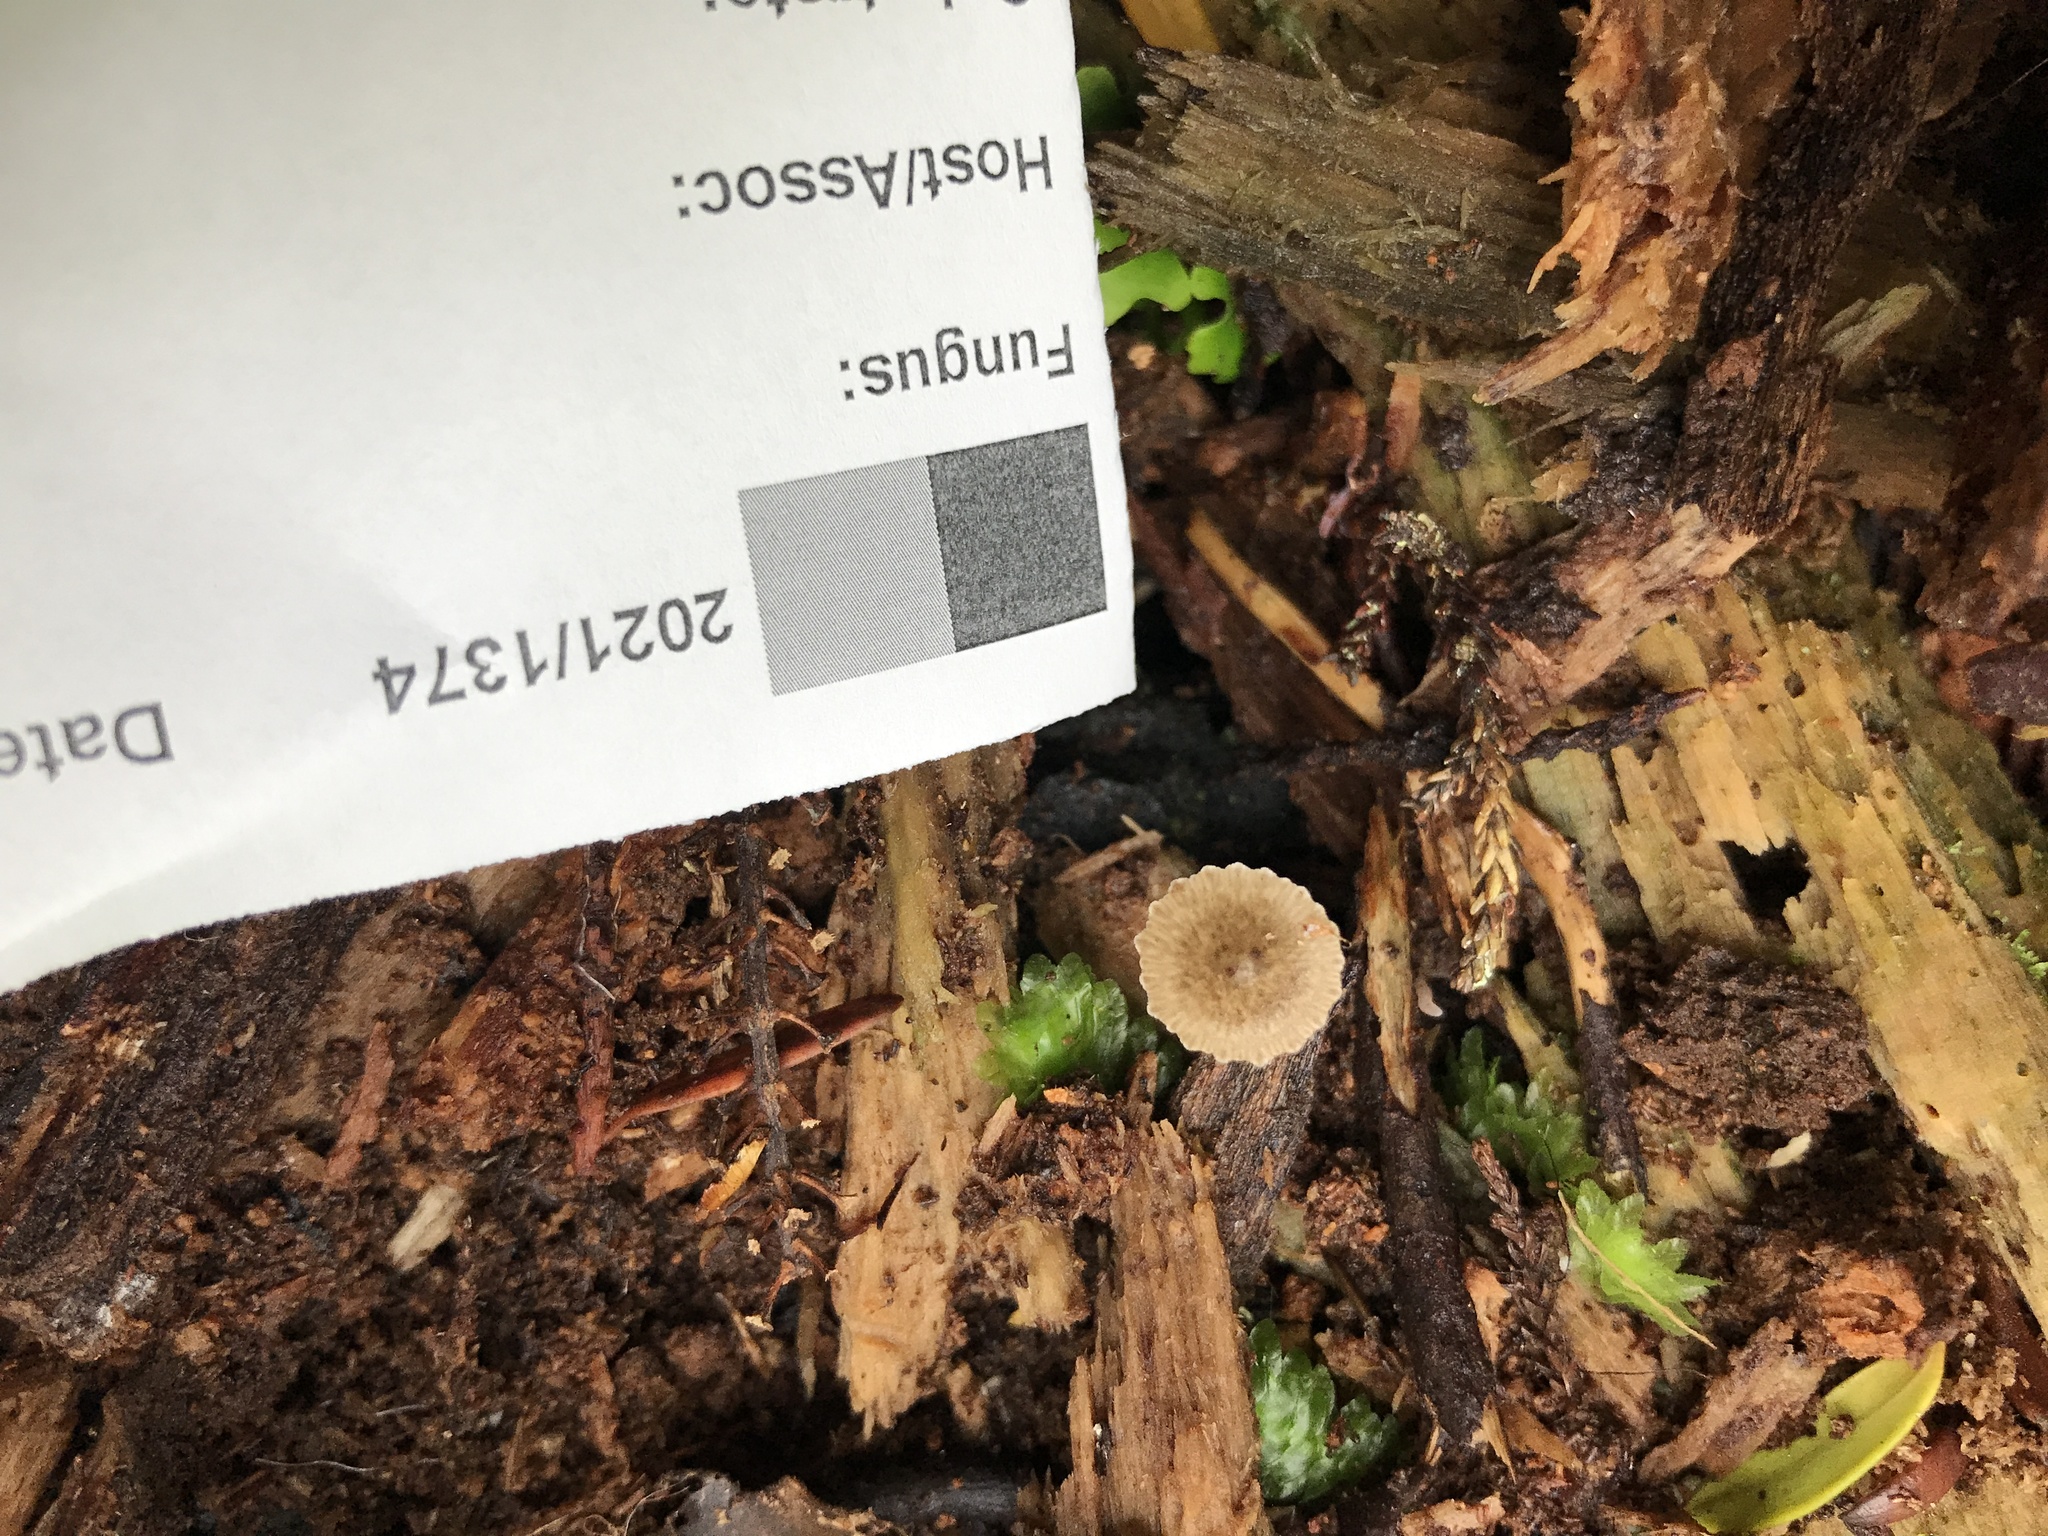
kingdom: Fungi
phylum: Basidiomycota
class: Agaricomycetes
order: Agaricales
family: Porotheleaceae
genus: Pseudohydropus
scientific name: Pseudohydropus parafunebris
